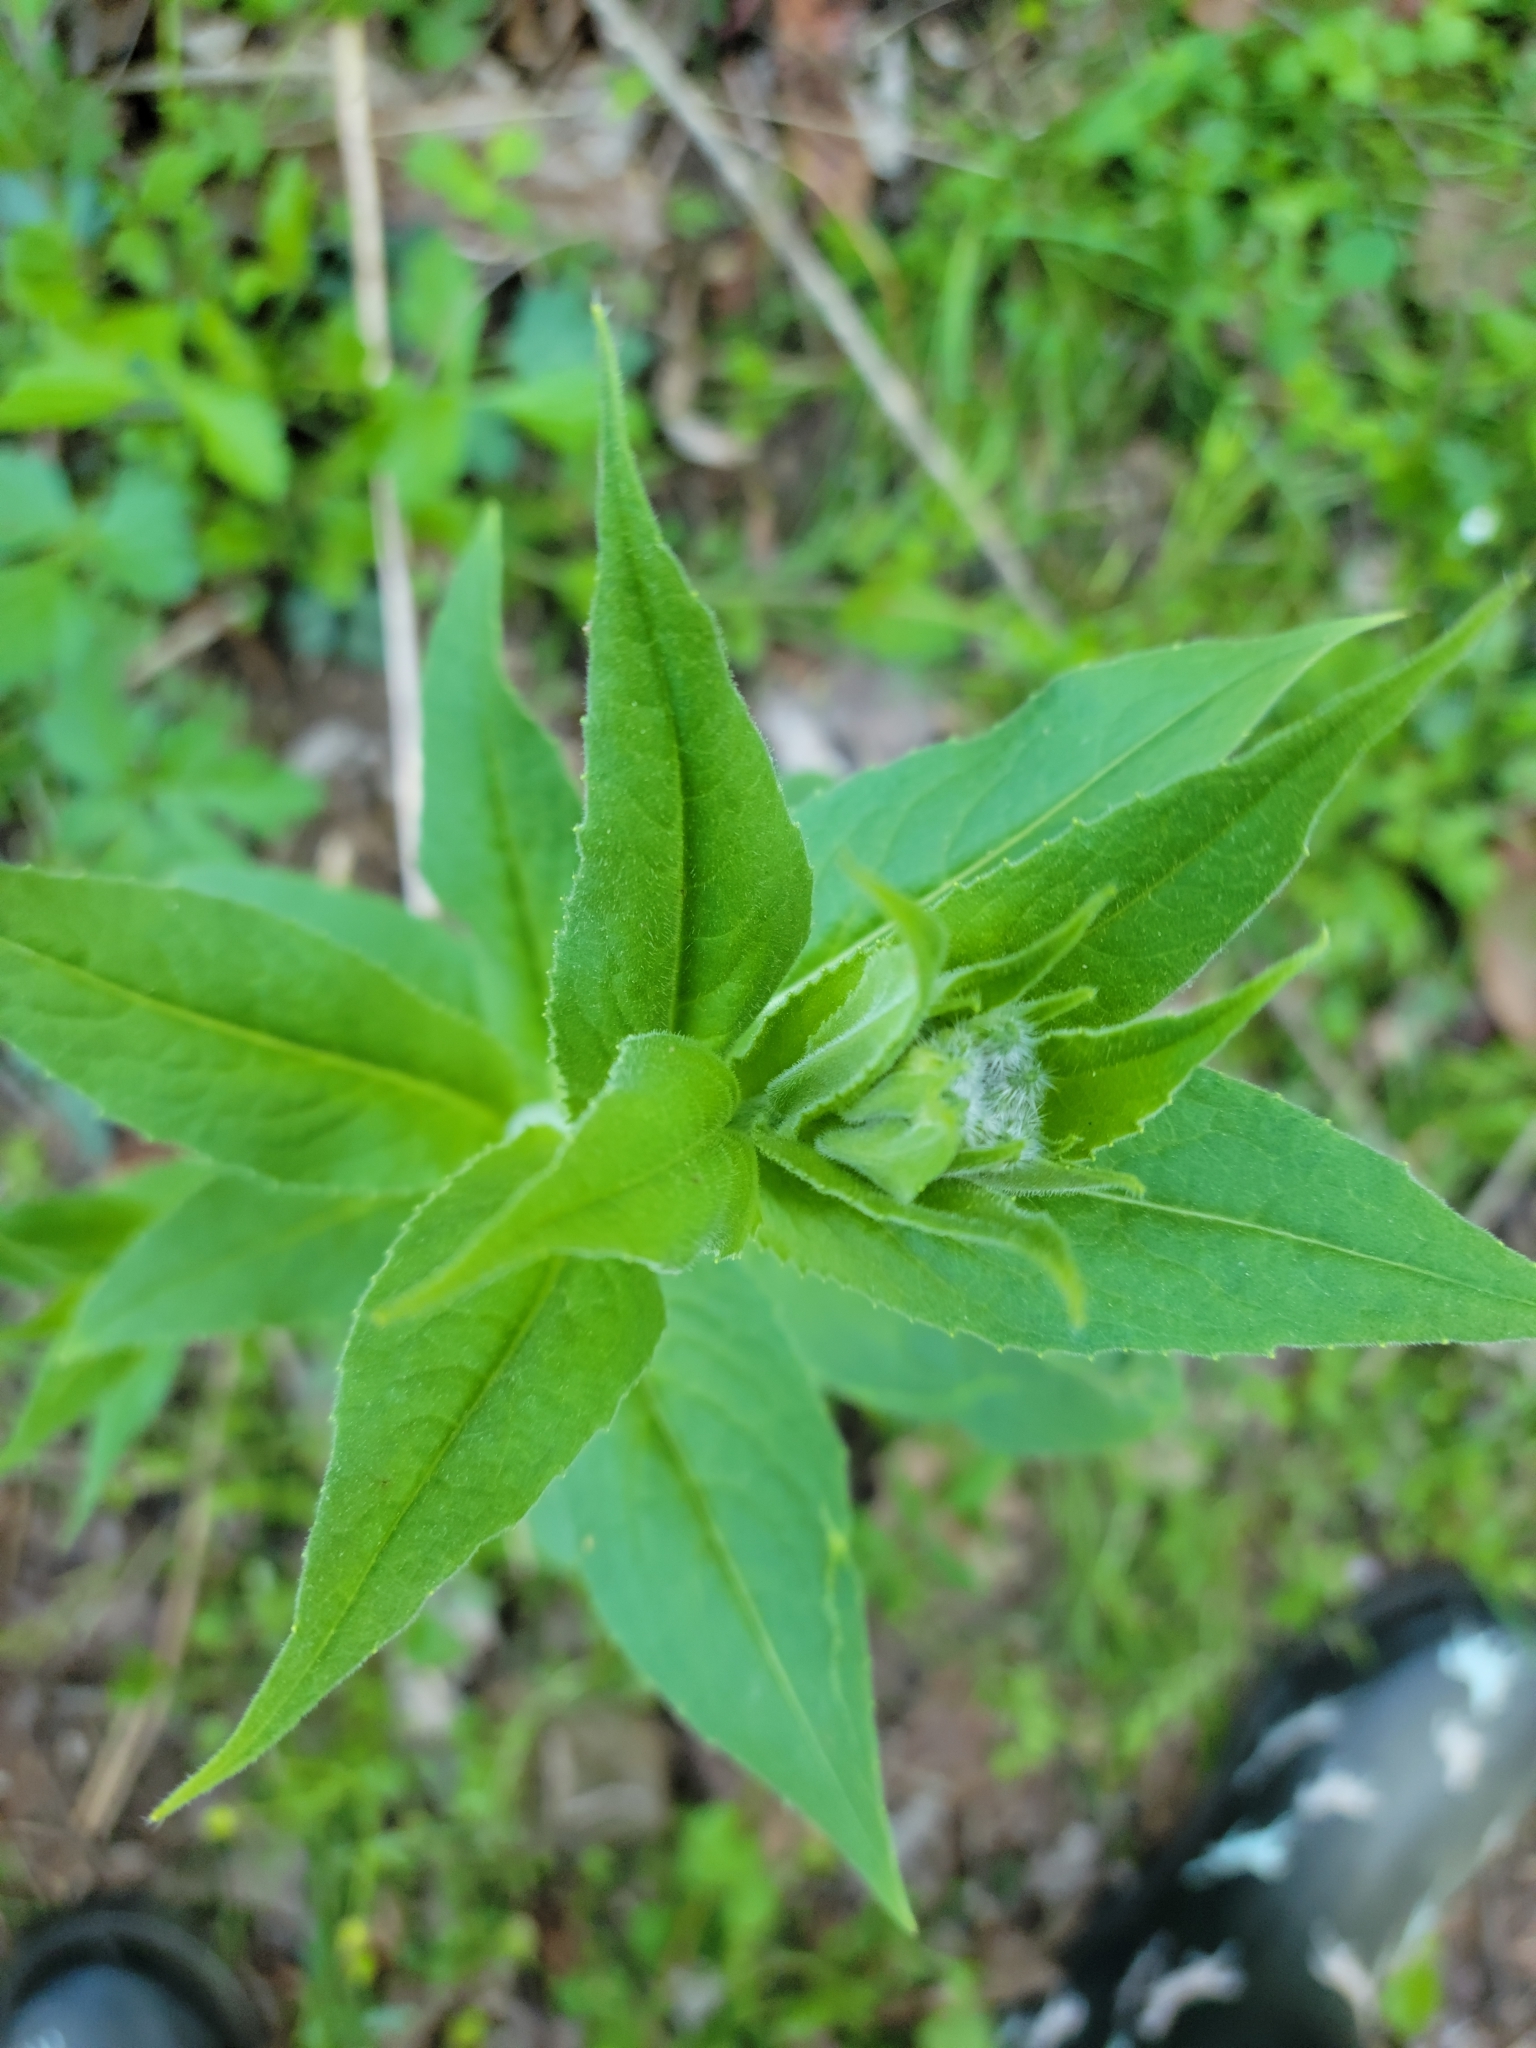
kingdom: Plantae
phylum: Tracheophyta
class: Magnoliopsida
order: Brassicales
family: Brassicaceae
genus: Hesperis
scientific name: Hesperis matronalis
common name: Dame's-violet
